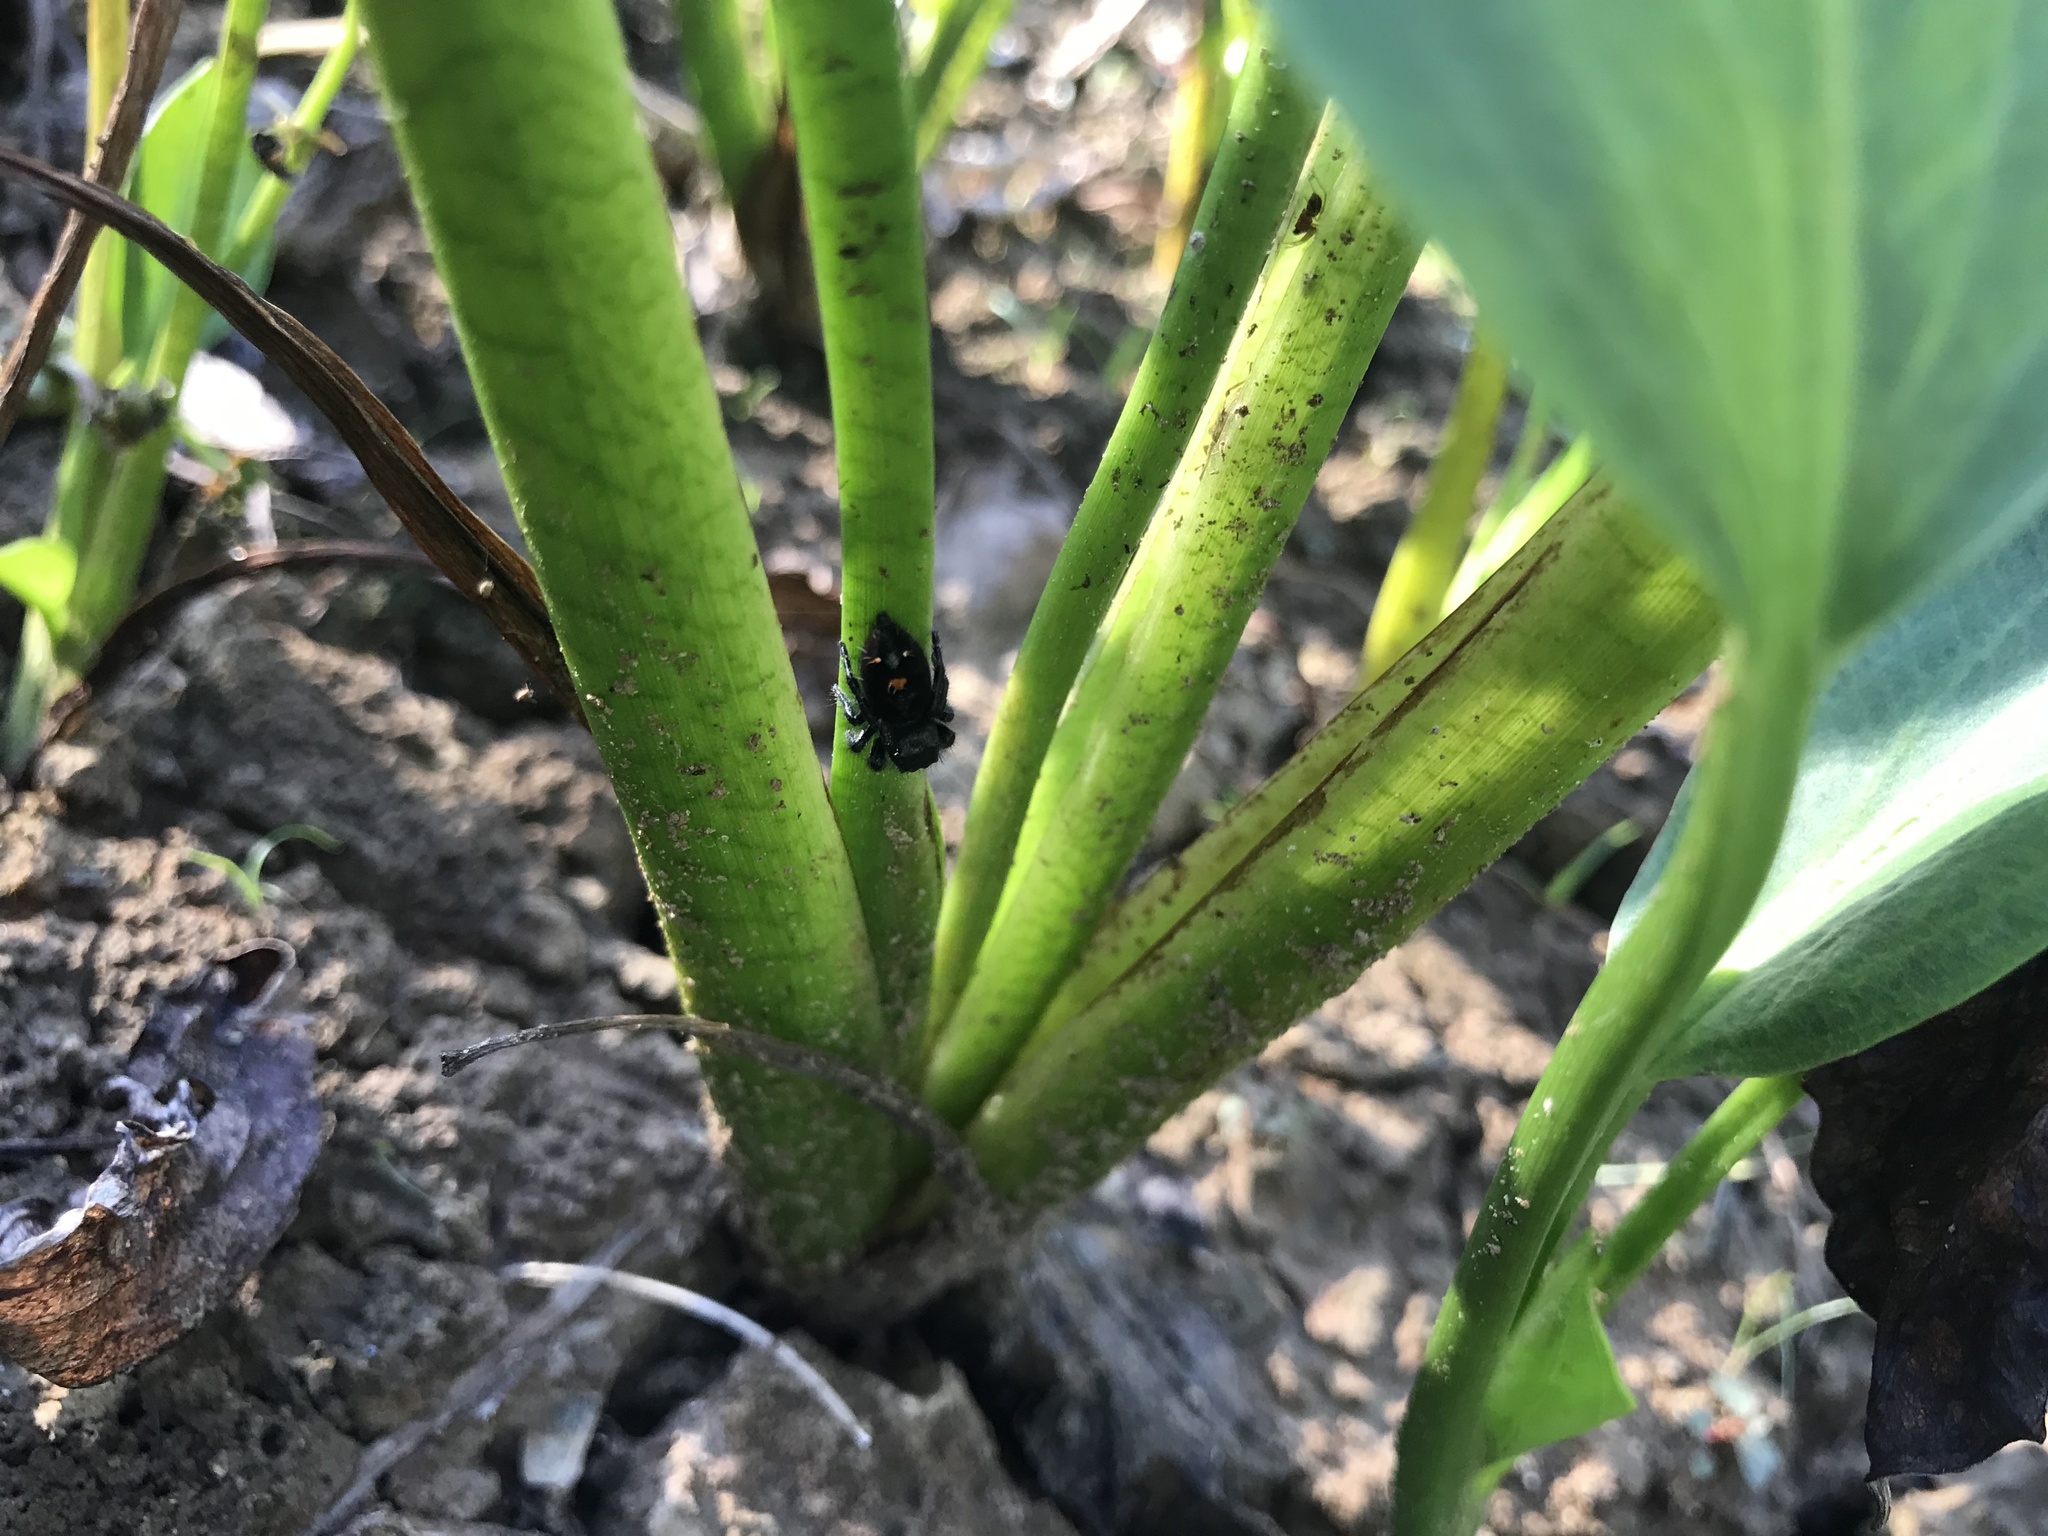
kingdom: Animalia
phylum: Arthropoda
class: Arachnida
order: Araneae
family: Salticidae
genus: Phidippus
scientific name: Phidippus audax
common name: Bold jumper
